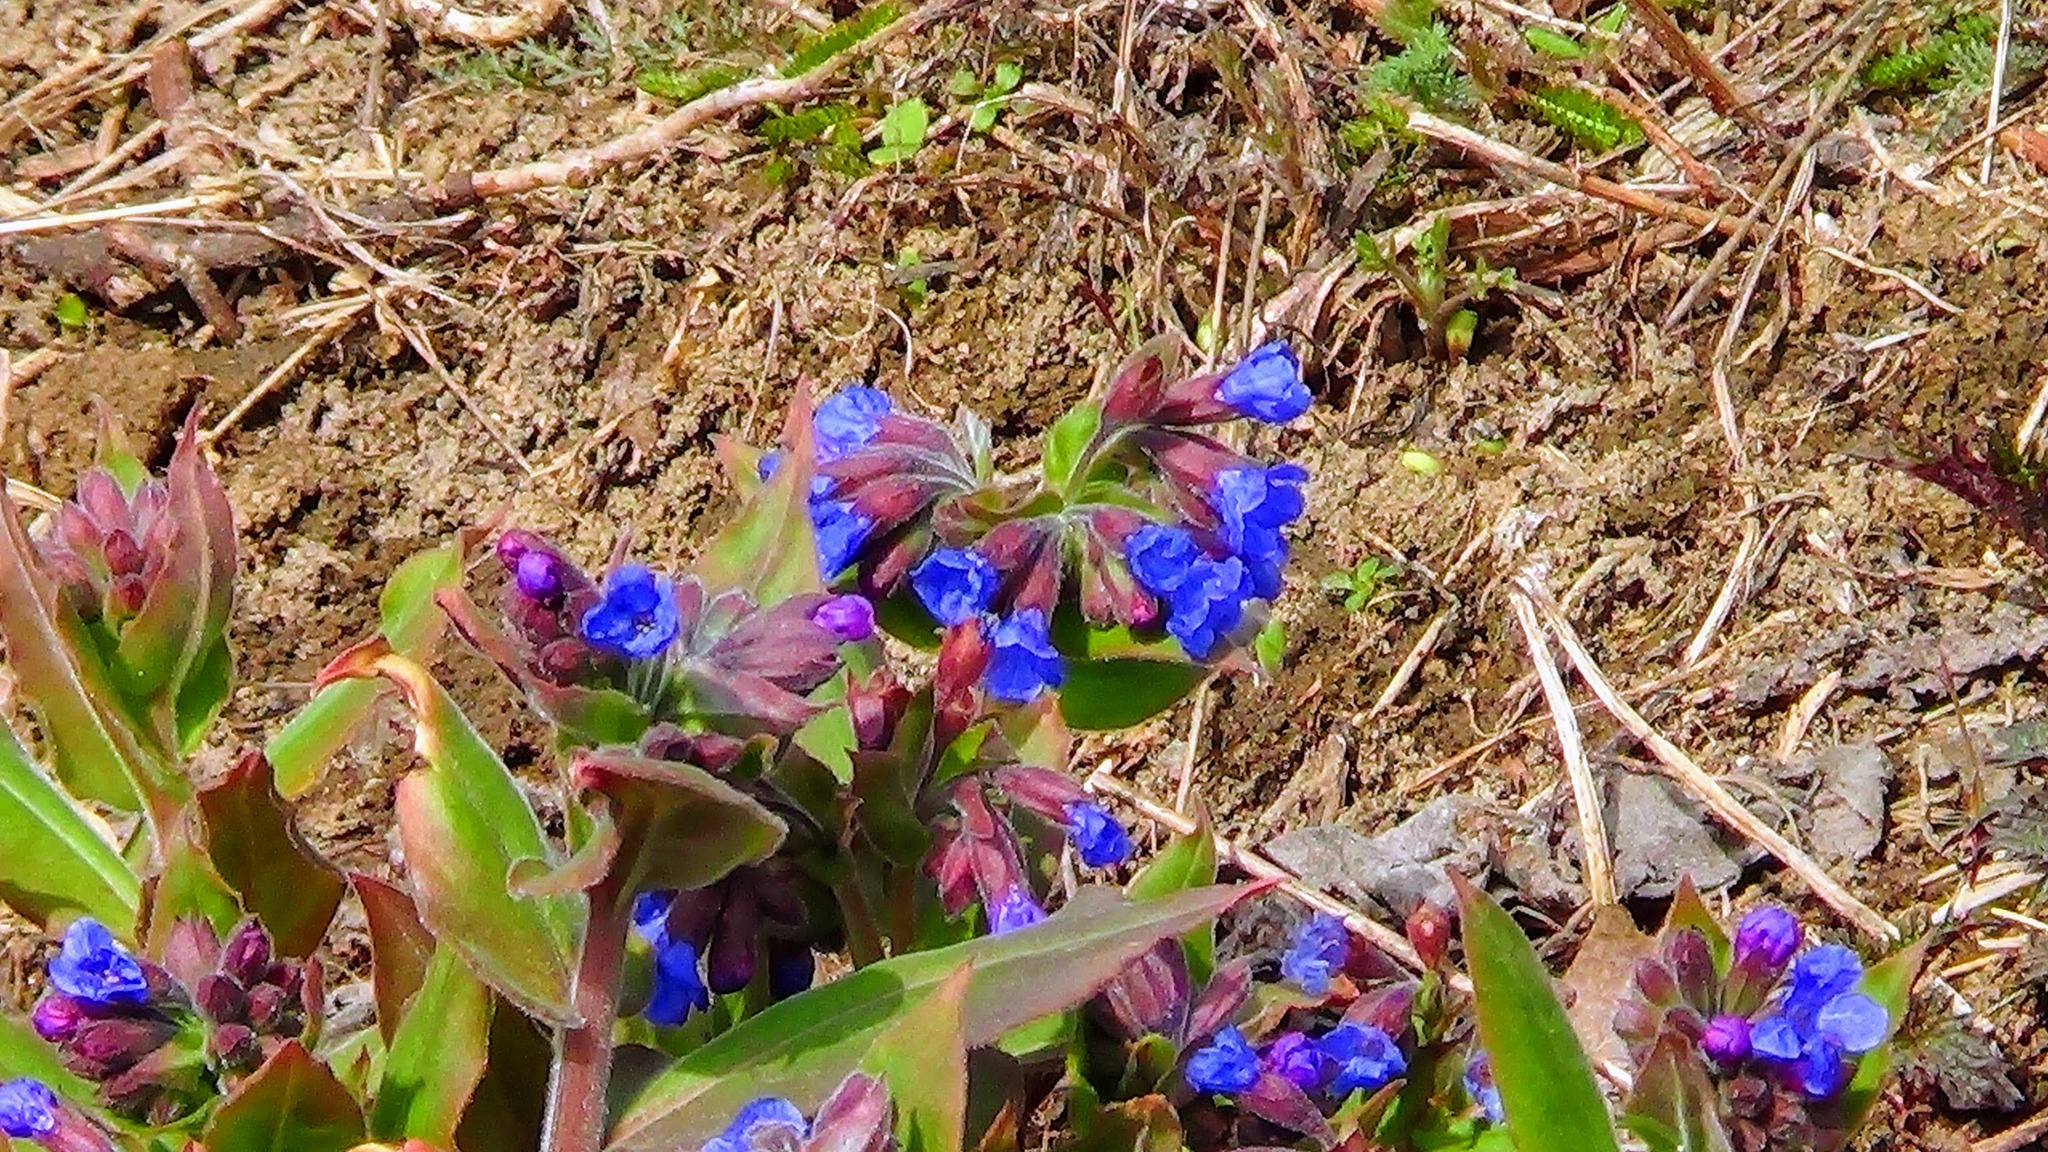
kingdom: Plantae
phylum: Tracheophyta
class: Magnoliopsida
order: Boraginales
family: Boraginaceae
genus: Pulmonaria
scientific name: Pulmonaria mollis
